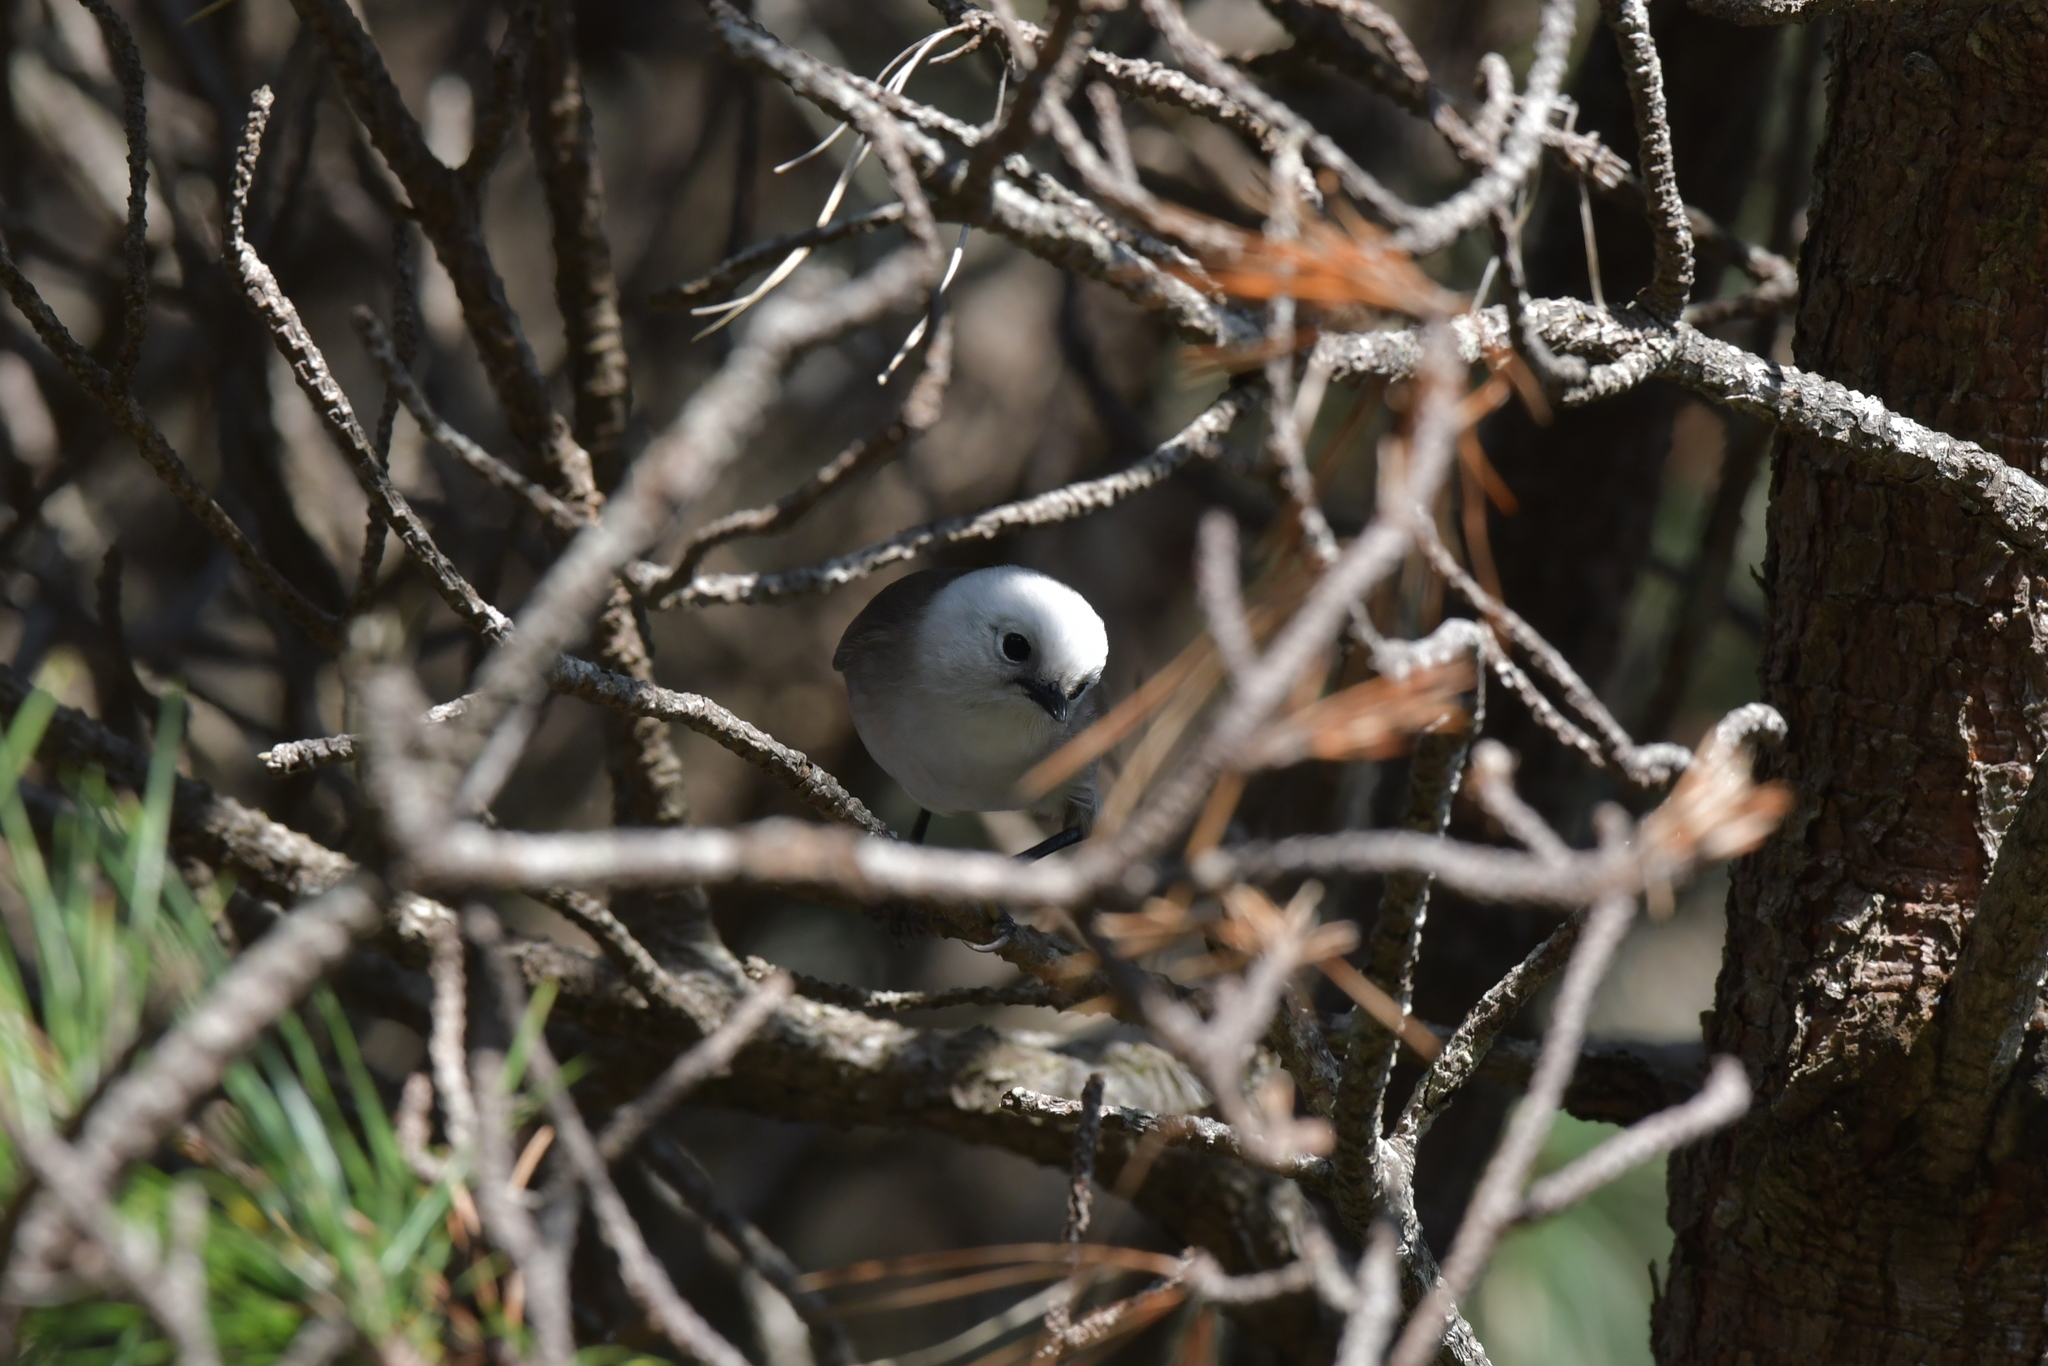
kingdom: Animalia
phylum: Chordata
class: Aves
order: Passeriformes
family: Acanthizidae
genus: Mohoua
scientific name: Mohoua albicilla
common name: Whitehead
